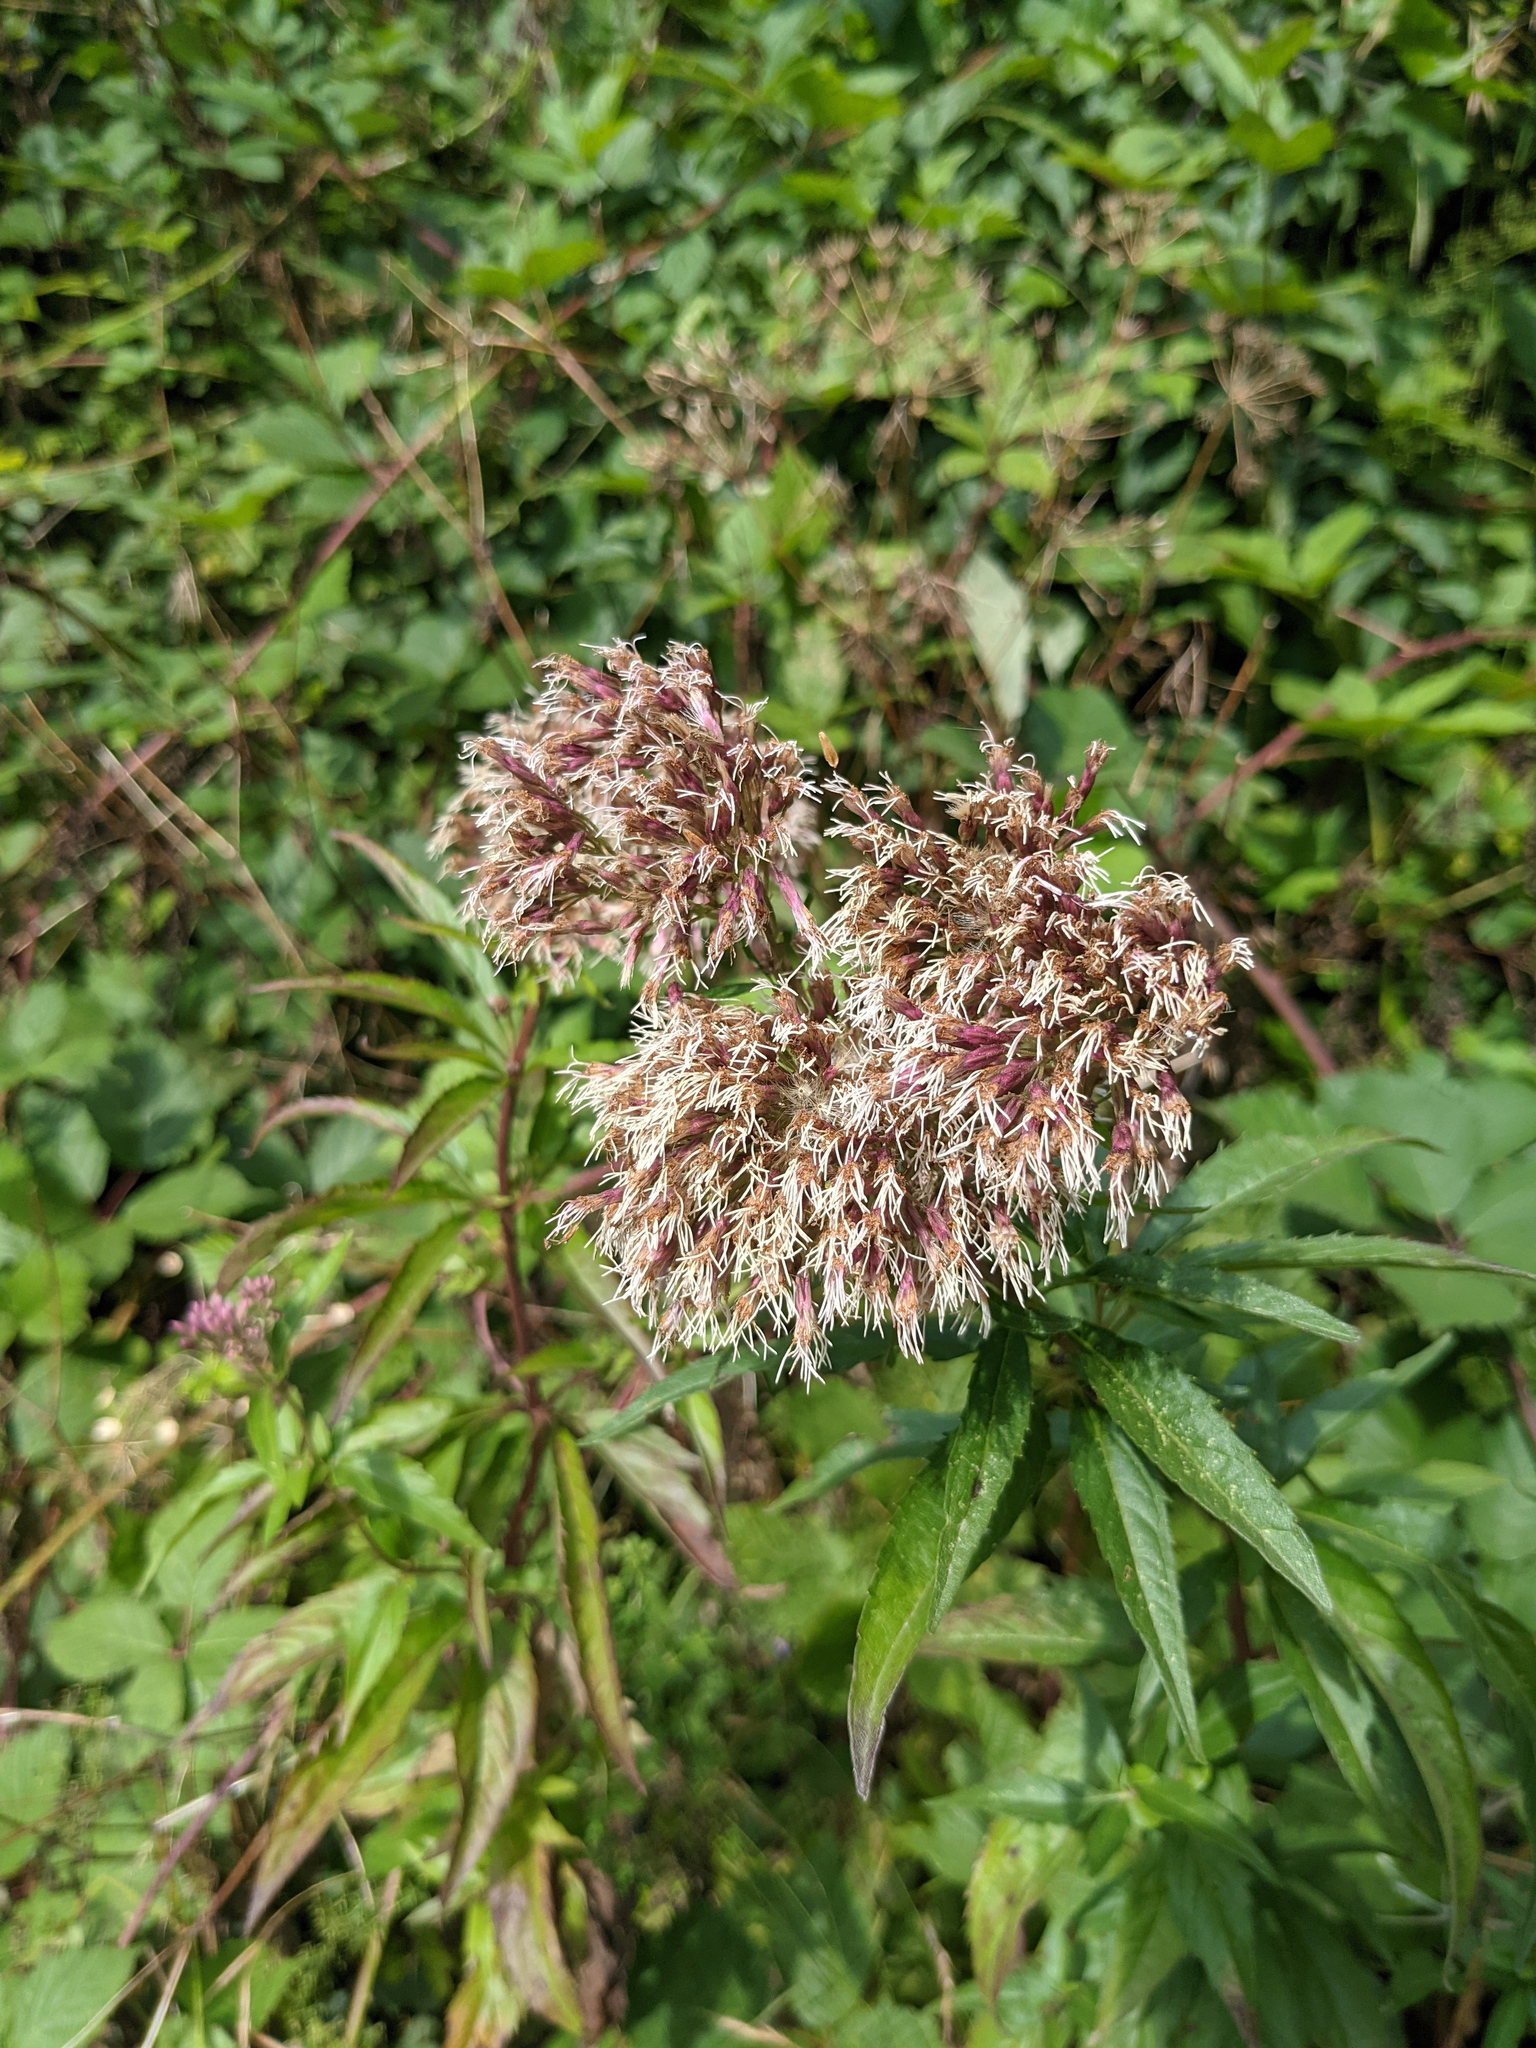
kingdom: Plantae
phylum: Tracheophyta
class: Magnoliopsida
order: Asterales
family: Asteraceae
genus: Eupatorium
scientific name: Eupatorium cannabinum
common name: Hemp-agrimony
